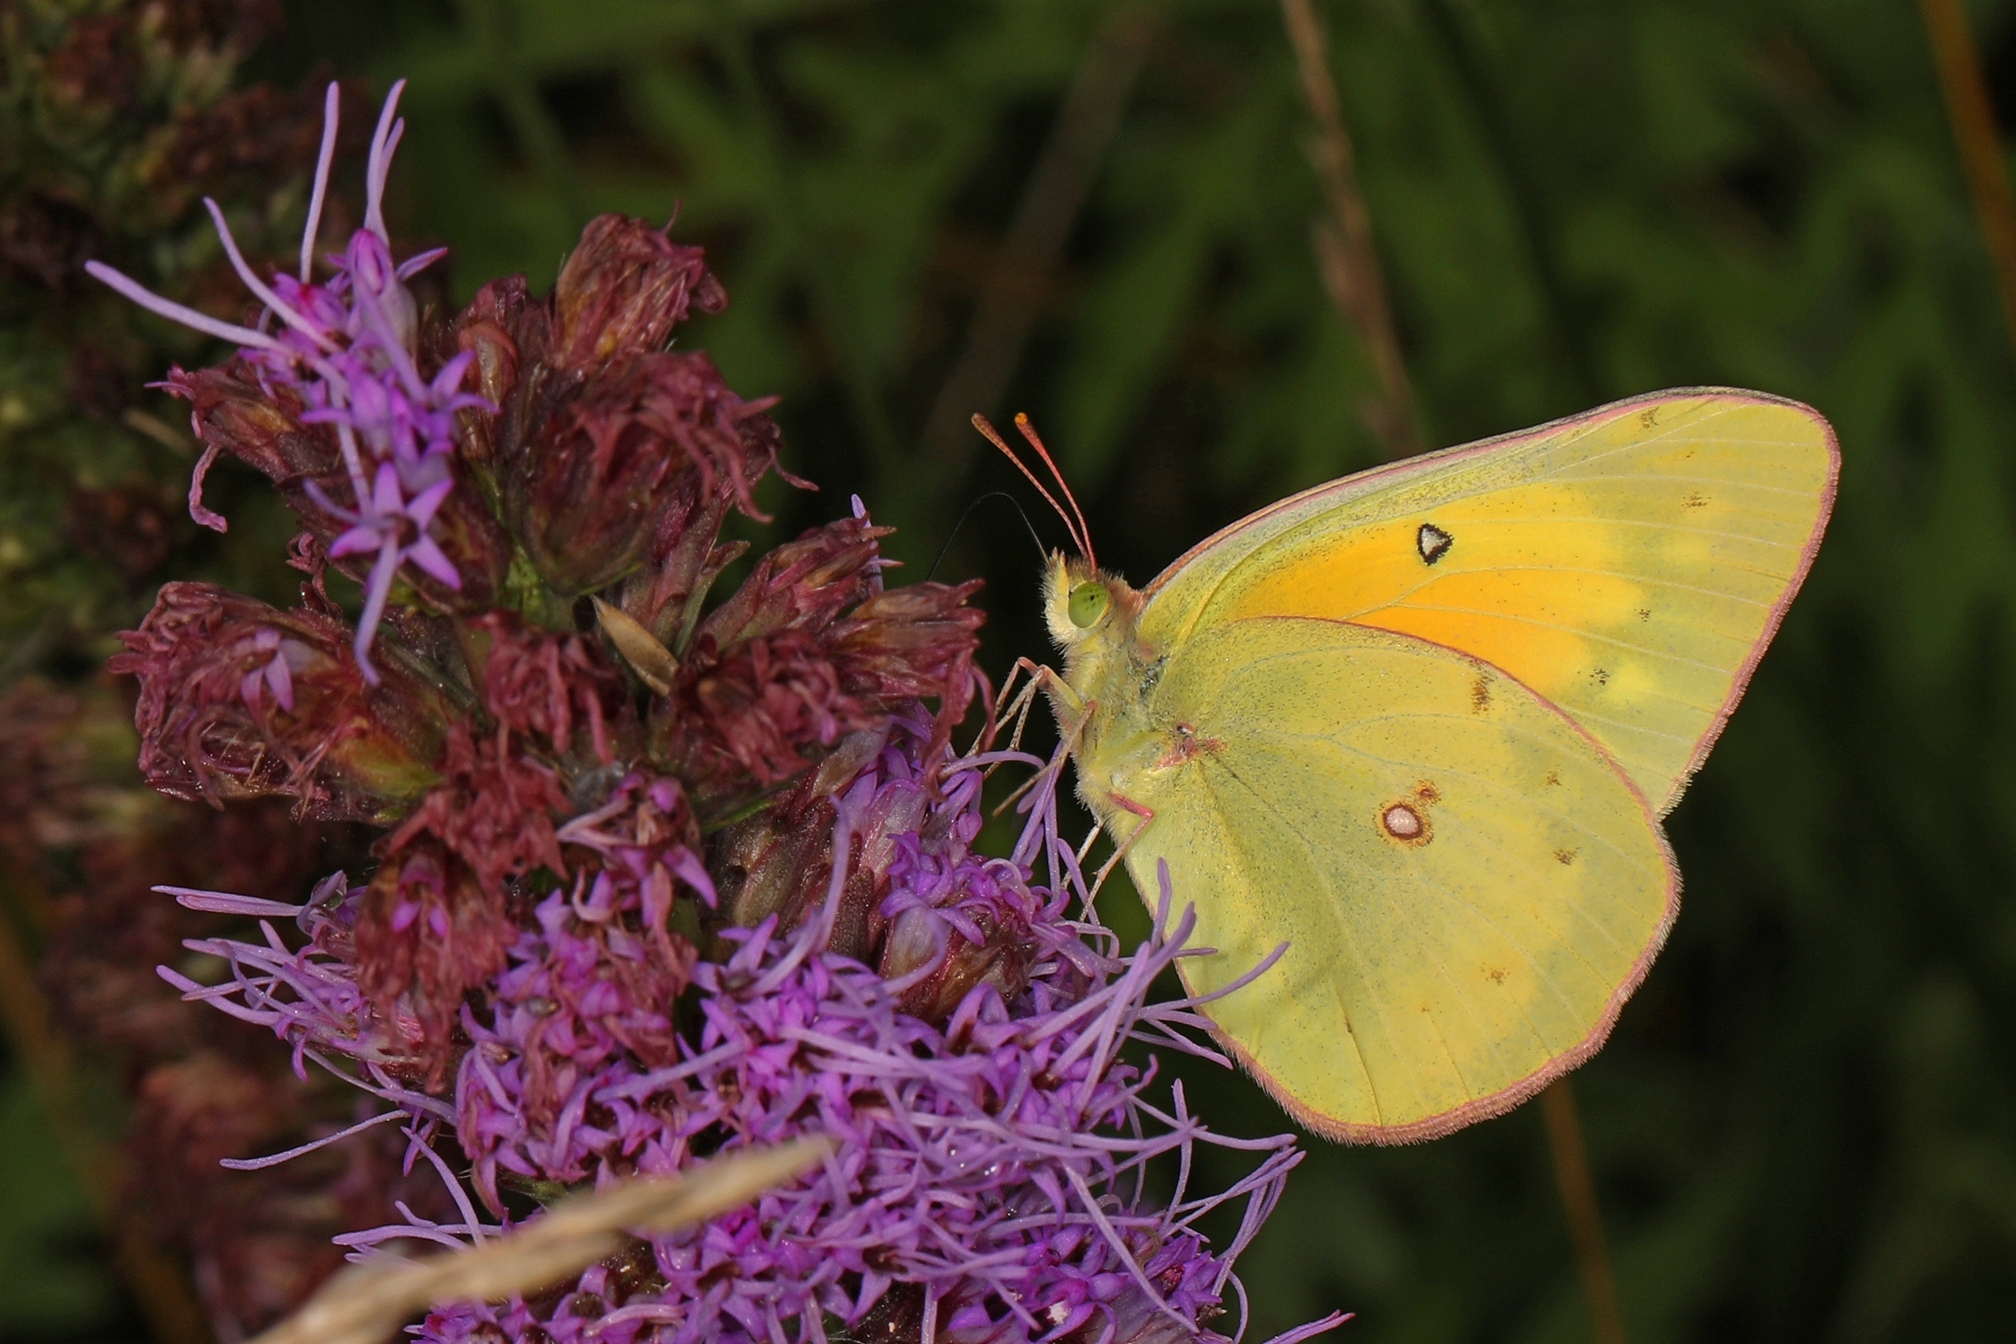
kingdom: Animalia
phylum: Arthropoda
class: Insecta
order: Lepidoptera
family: Pieridae
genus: Colias
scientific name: Colias eurytheme
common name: Alfalfa butterfly
